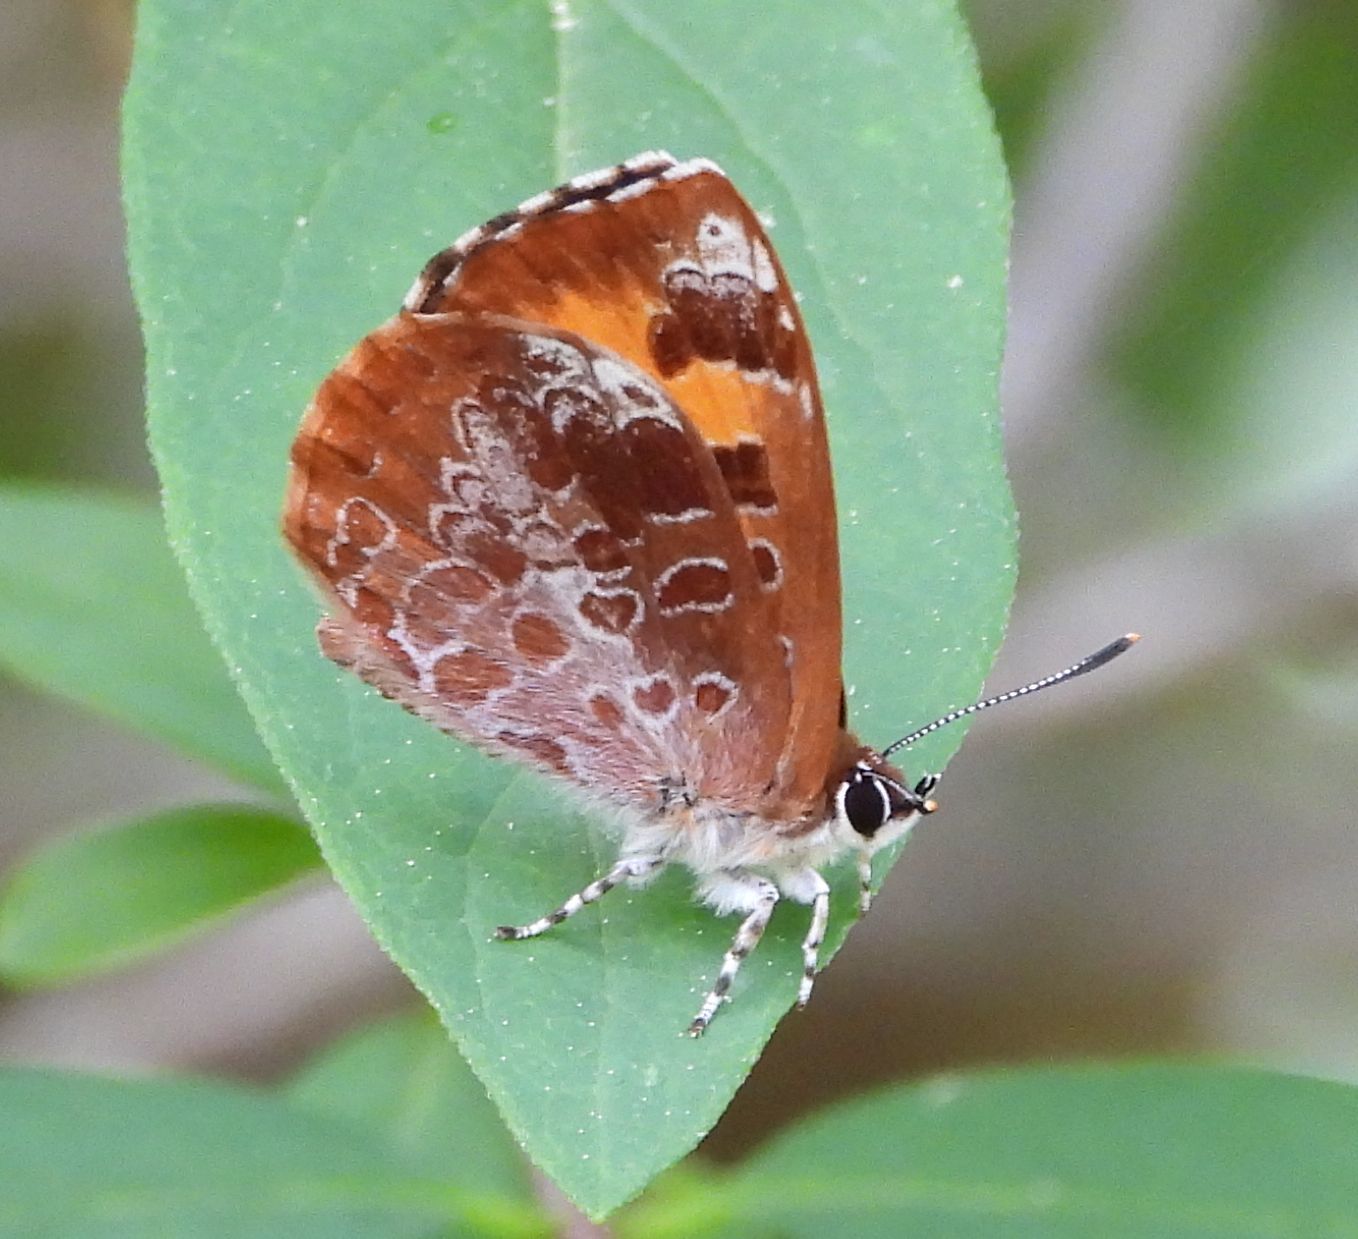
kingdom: Animalia
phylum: Arthropoda
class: Insecta
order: Lepidoptera
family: Lycaenidae
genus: Feniseca
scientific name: Feniseca tarquinius
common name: Harvester
